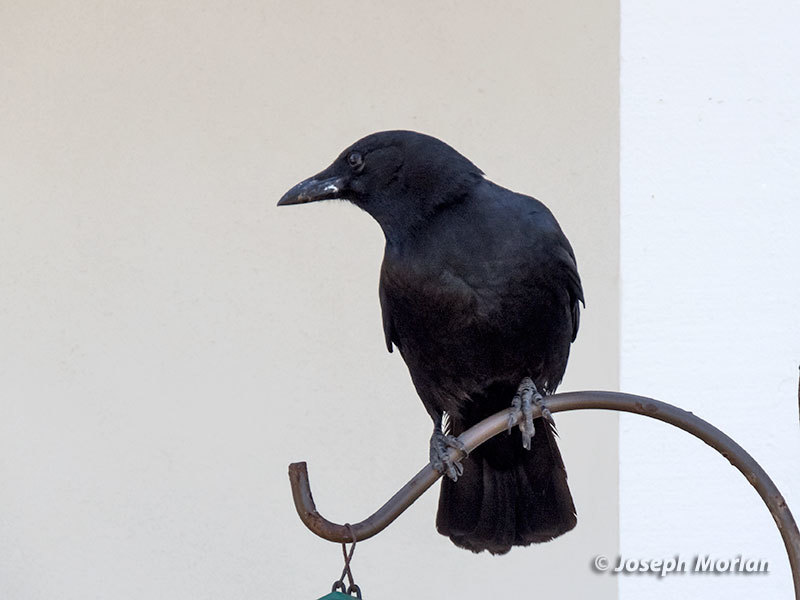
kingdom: Animalia
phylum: Chordata
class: Aves
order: Passeriformes
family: Corvidae
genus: Corvus
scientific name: Corvus brachyrhynchos
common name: American crow
